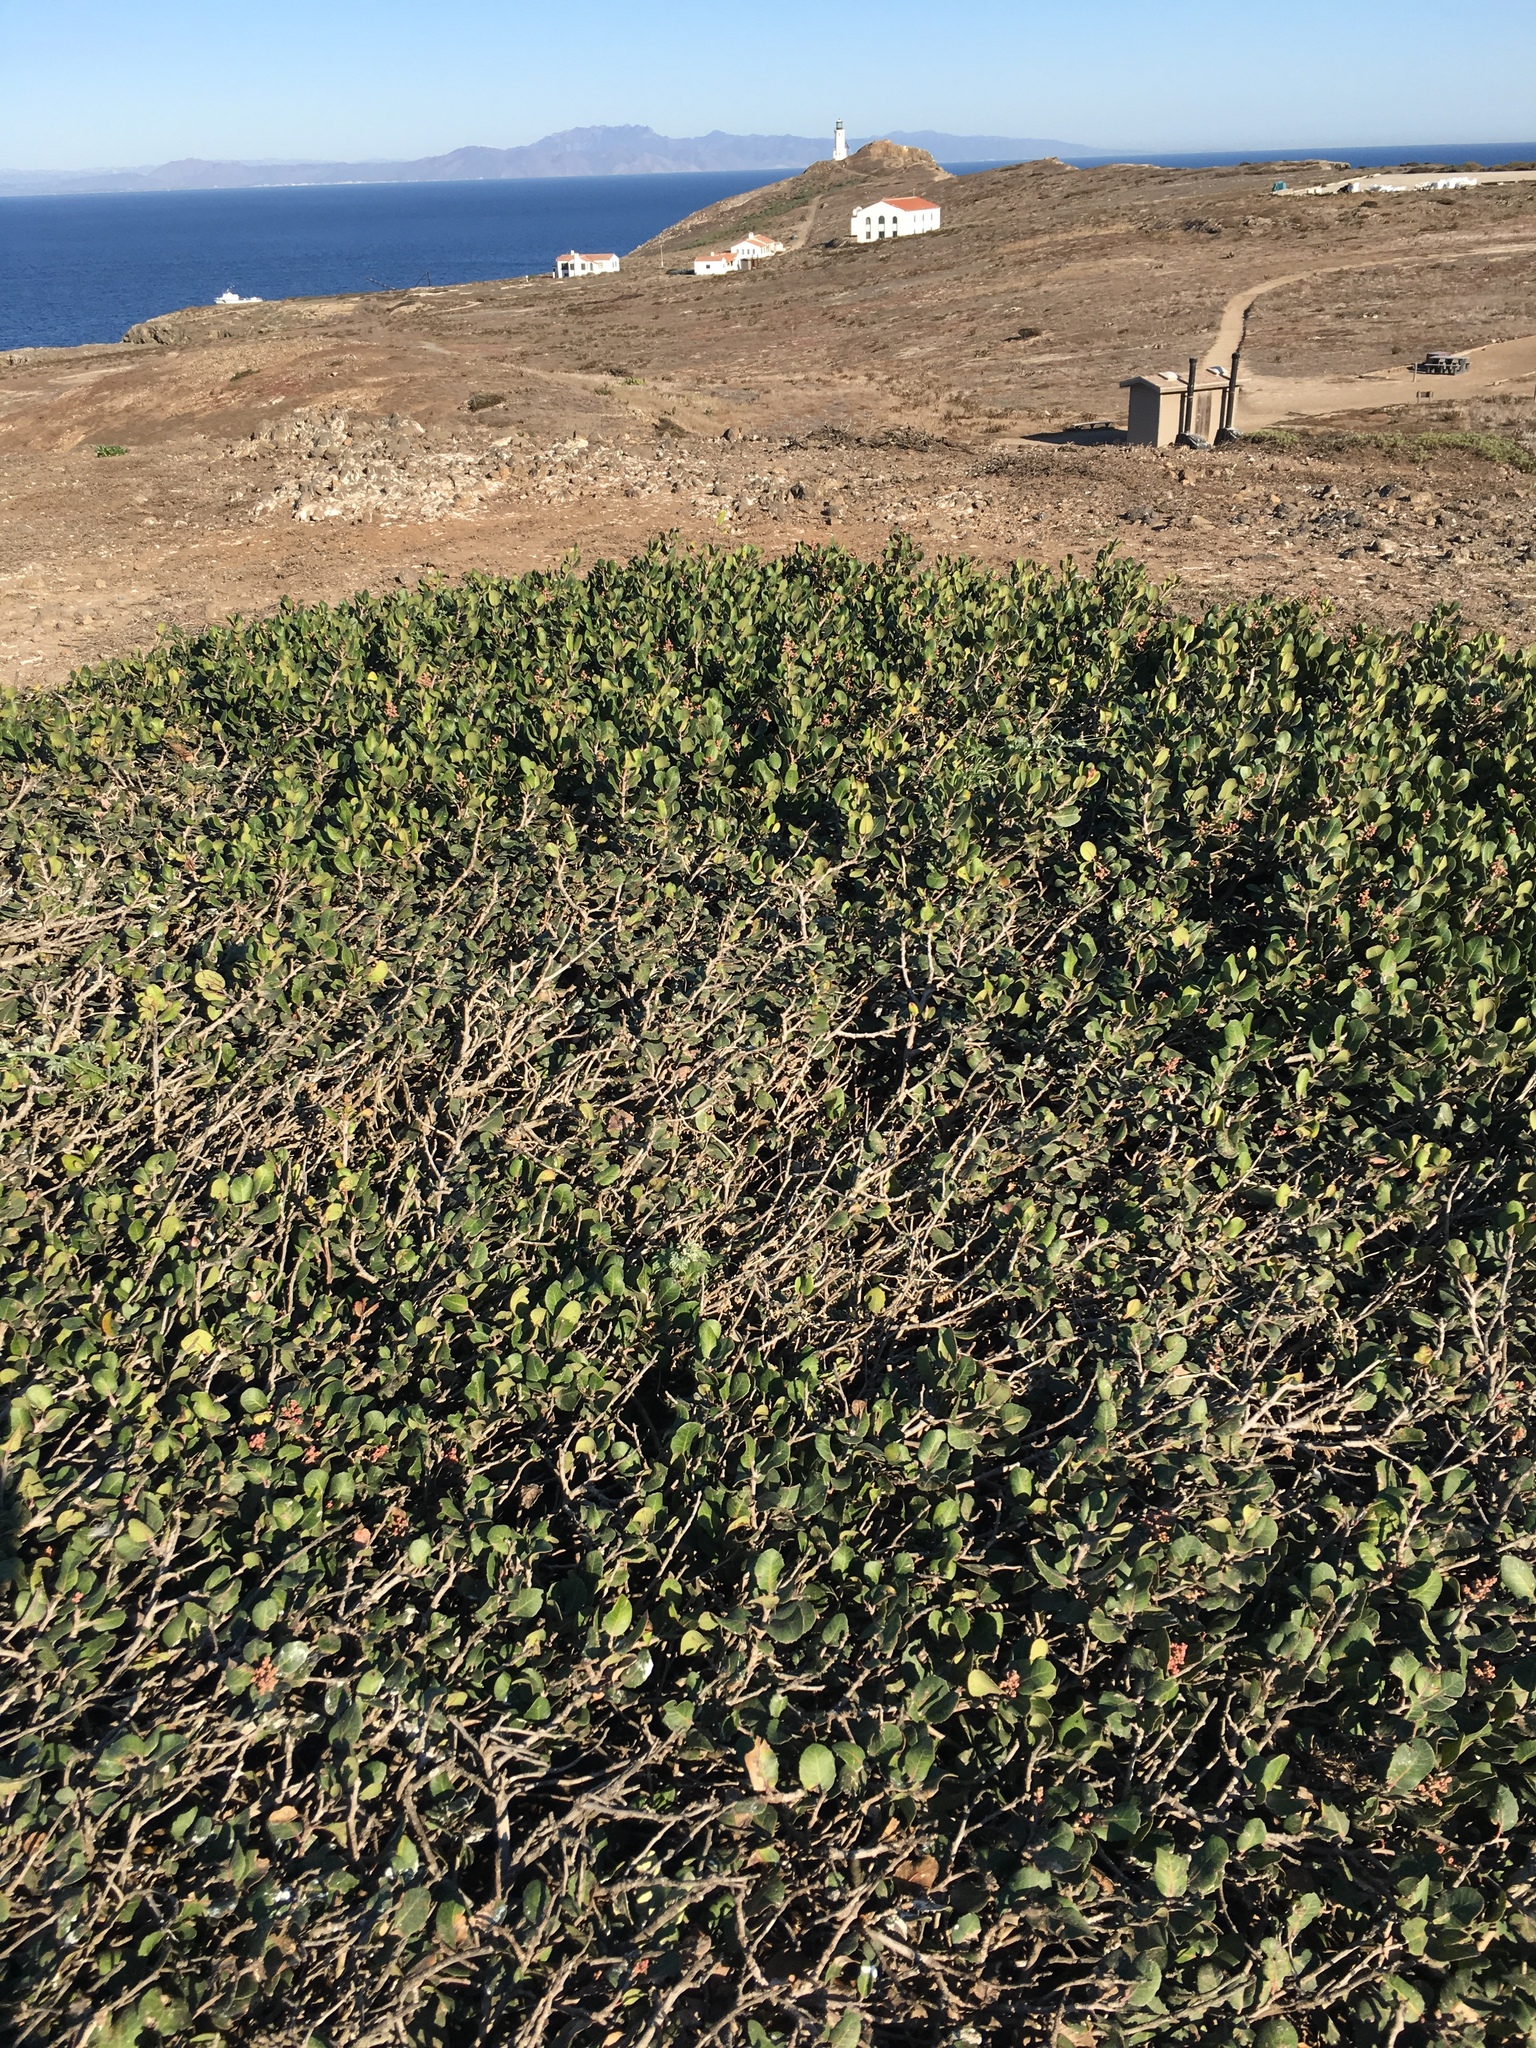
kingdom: Plantae
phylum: Tracheophyta
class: Magnoliopsida
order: Sapindales
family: Anacardiaceae
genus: Rhus
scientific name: Rhus integrifolia
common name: Lemonade sumac
